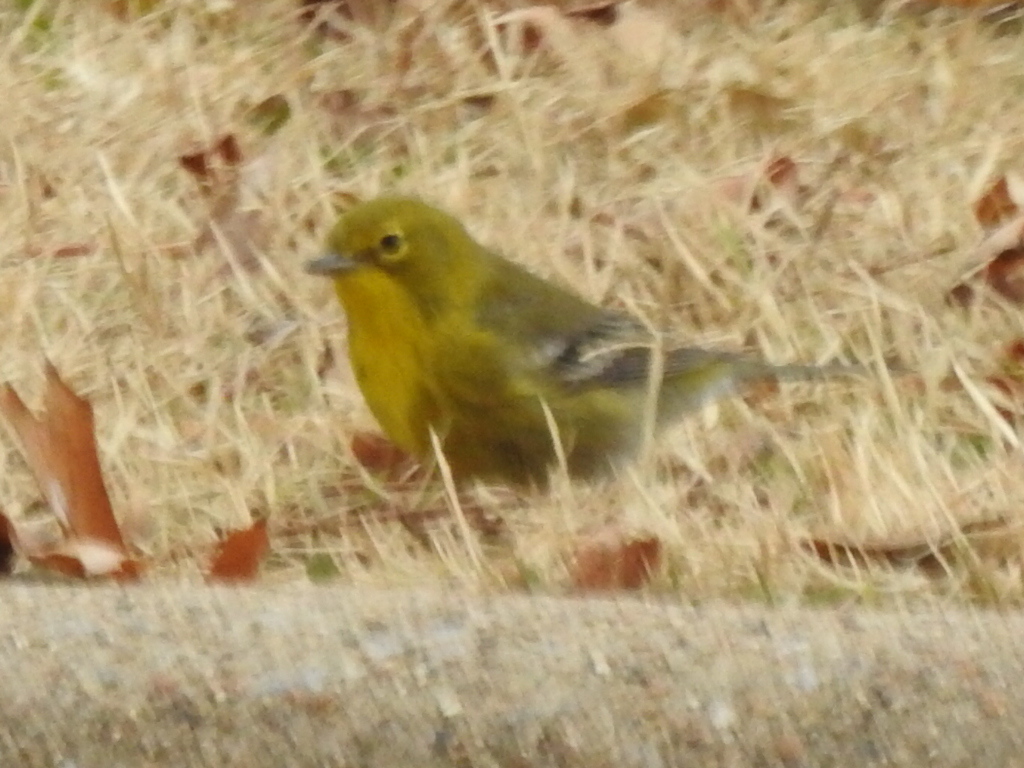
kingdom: Animalia
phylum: Chordata
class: Aves
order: Passeriformes
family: Parulidae
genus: Setophaga
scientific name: Setophaga pinus
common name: Pine warbler
